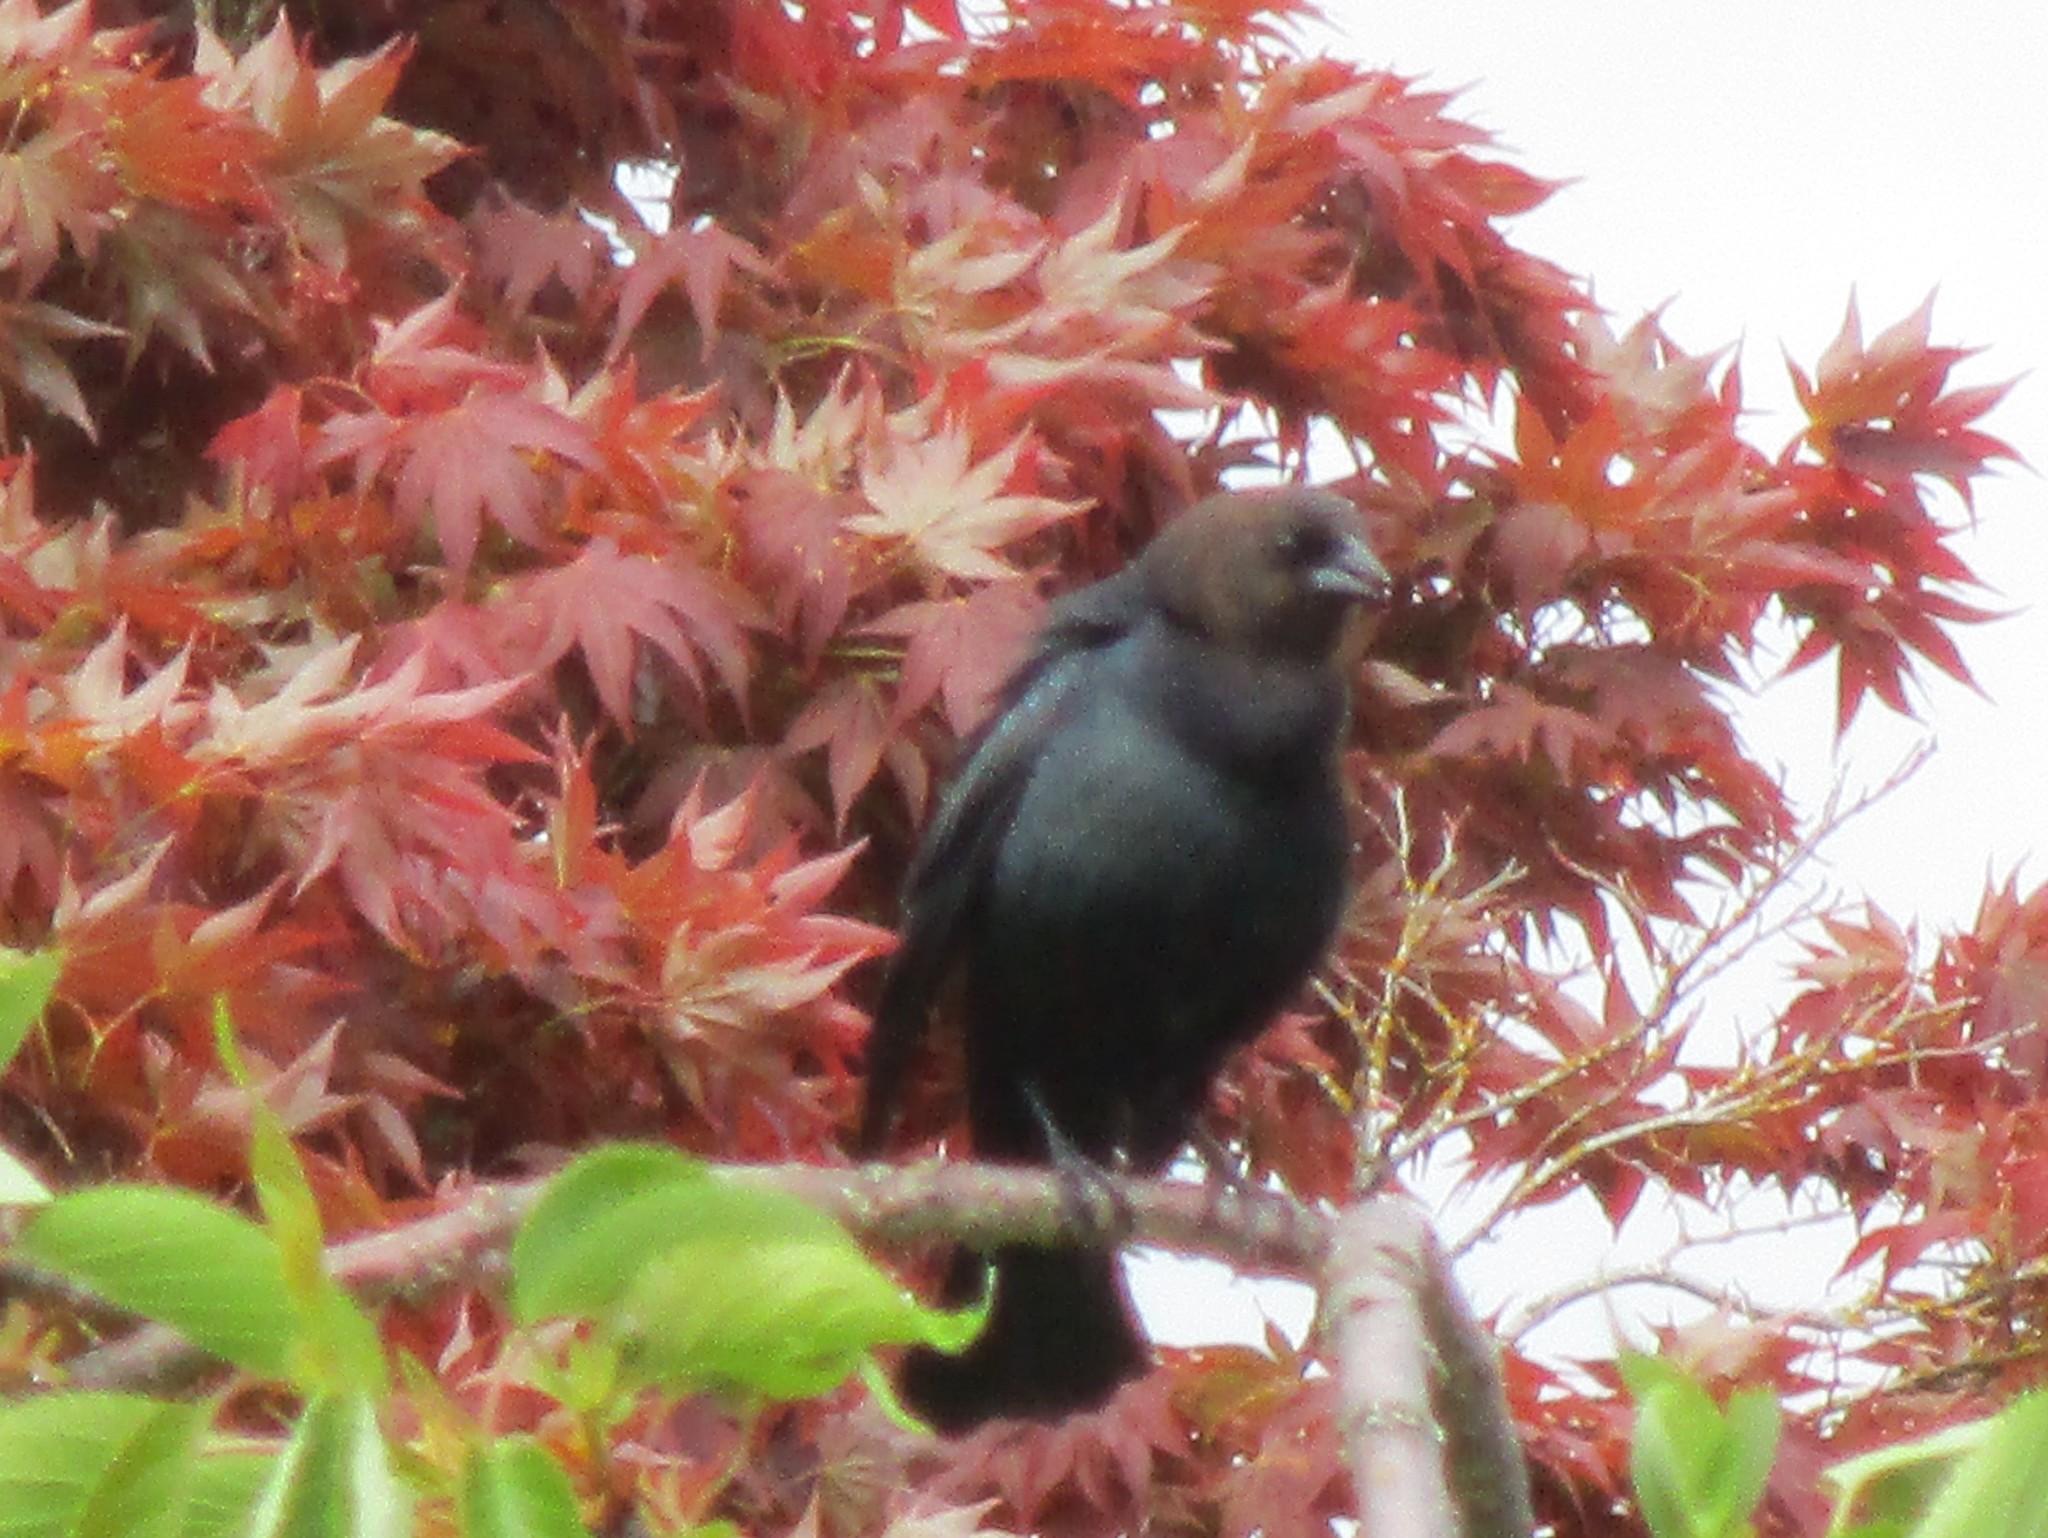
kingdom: Animalia
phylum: Chordata
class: Aves
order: Passeriformes
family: Icteridae
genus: Molothrus
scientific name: Molothrus ater
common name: Brown-headed cowbird
